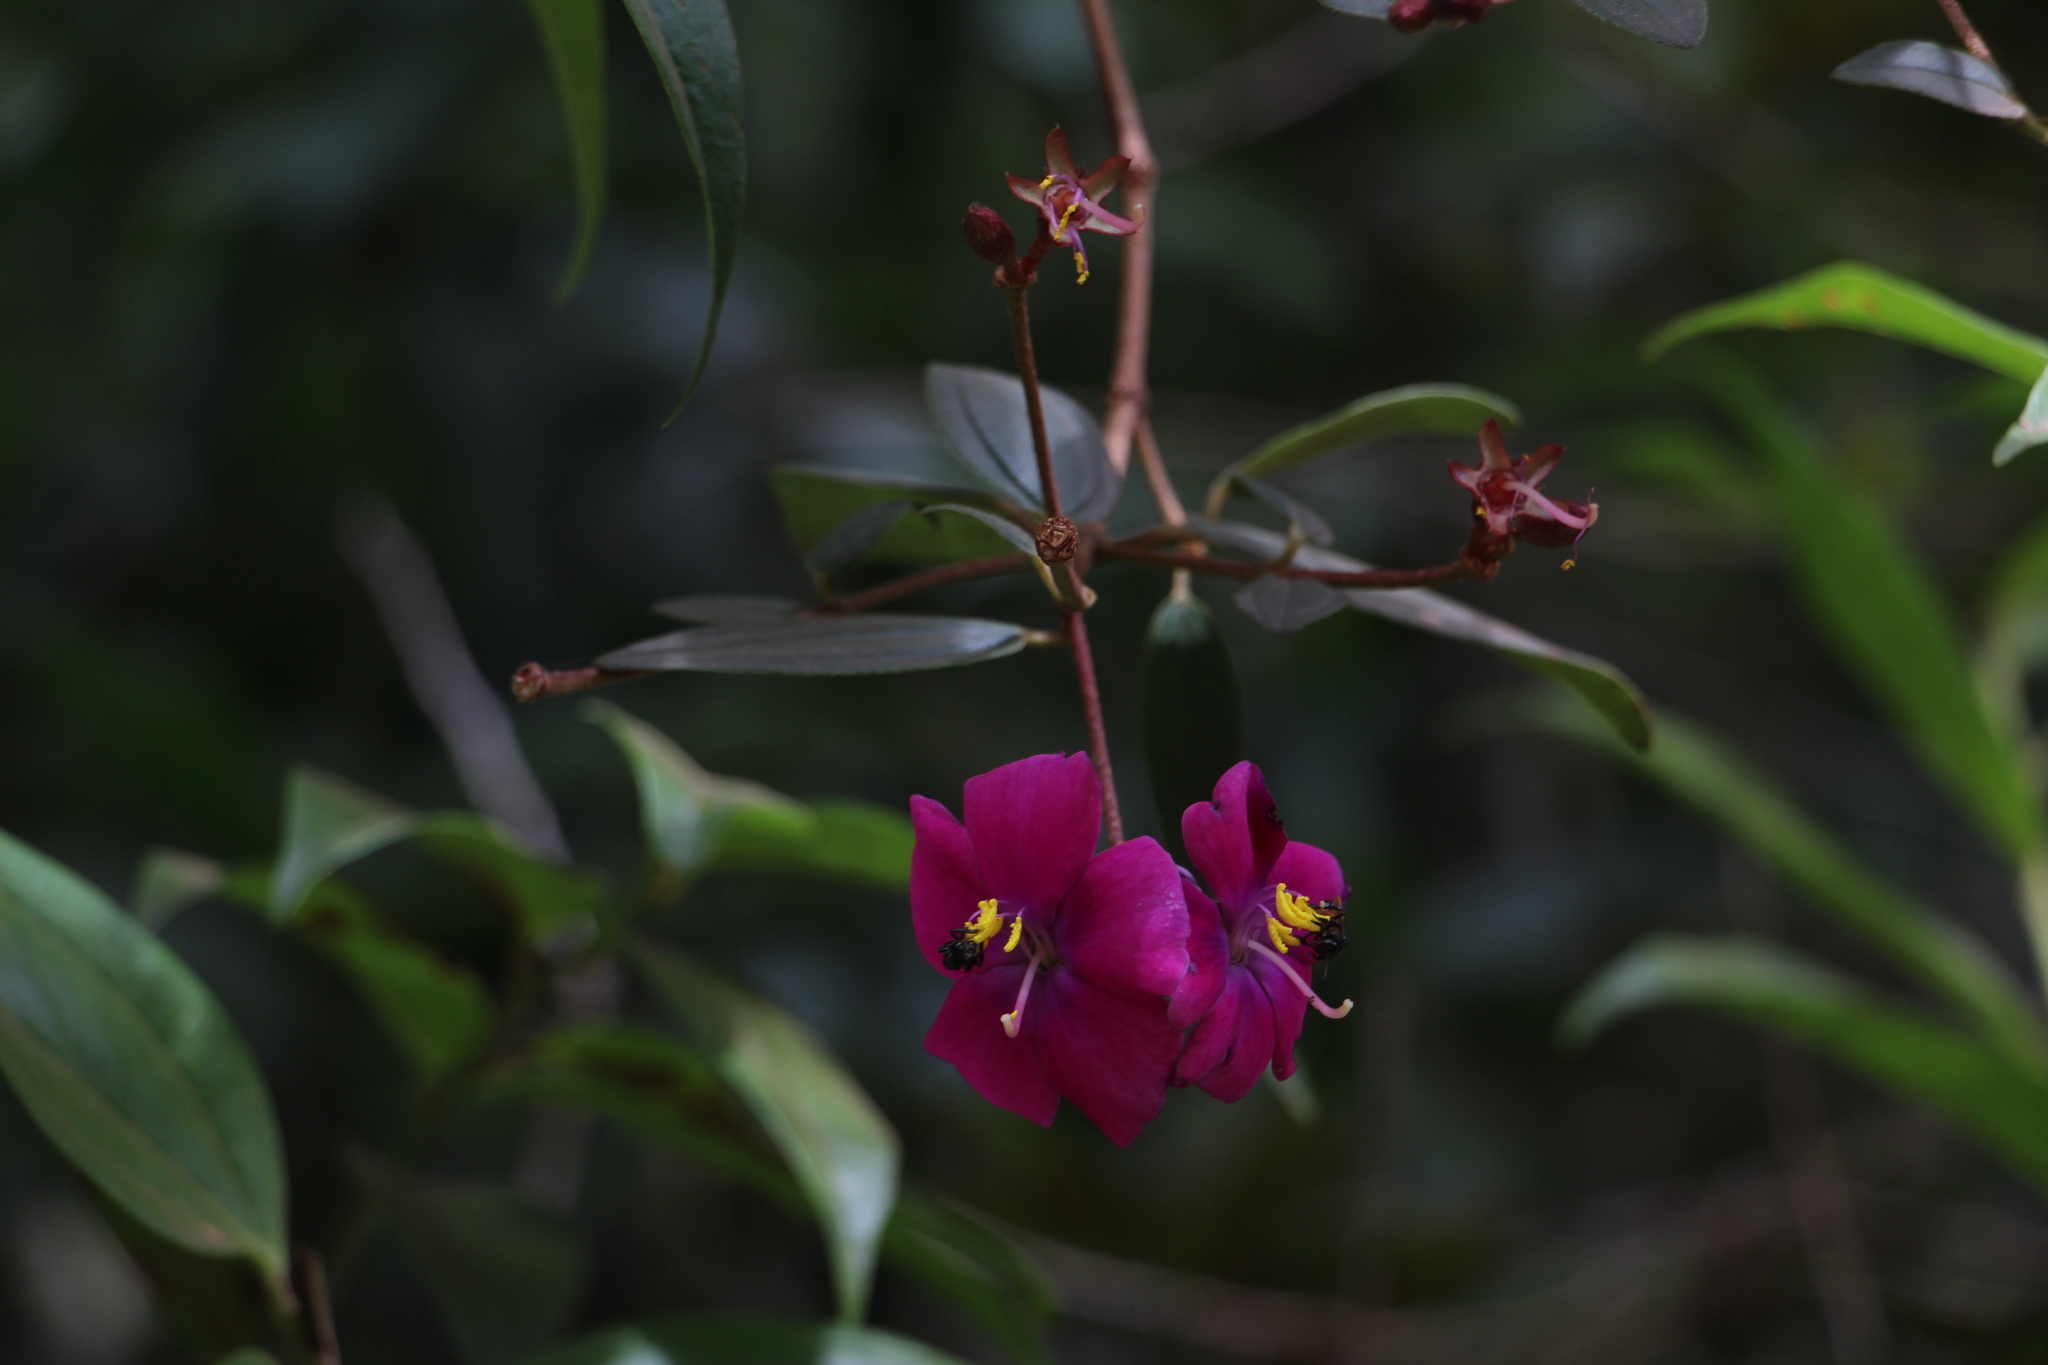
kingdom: Plantae
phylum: Tracheophyta
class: Magnoliopsida
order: Myrtales
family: Melastomataceae
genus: Andesanthus
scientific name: Andesanthus lepidotus
